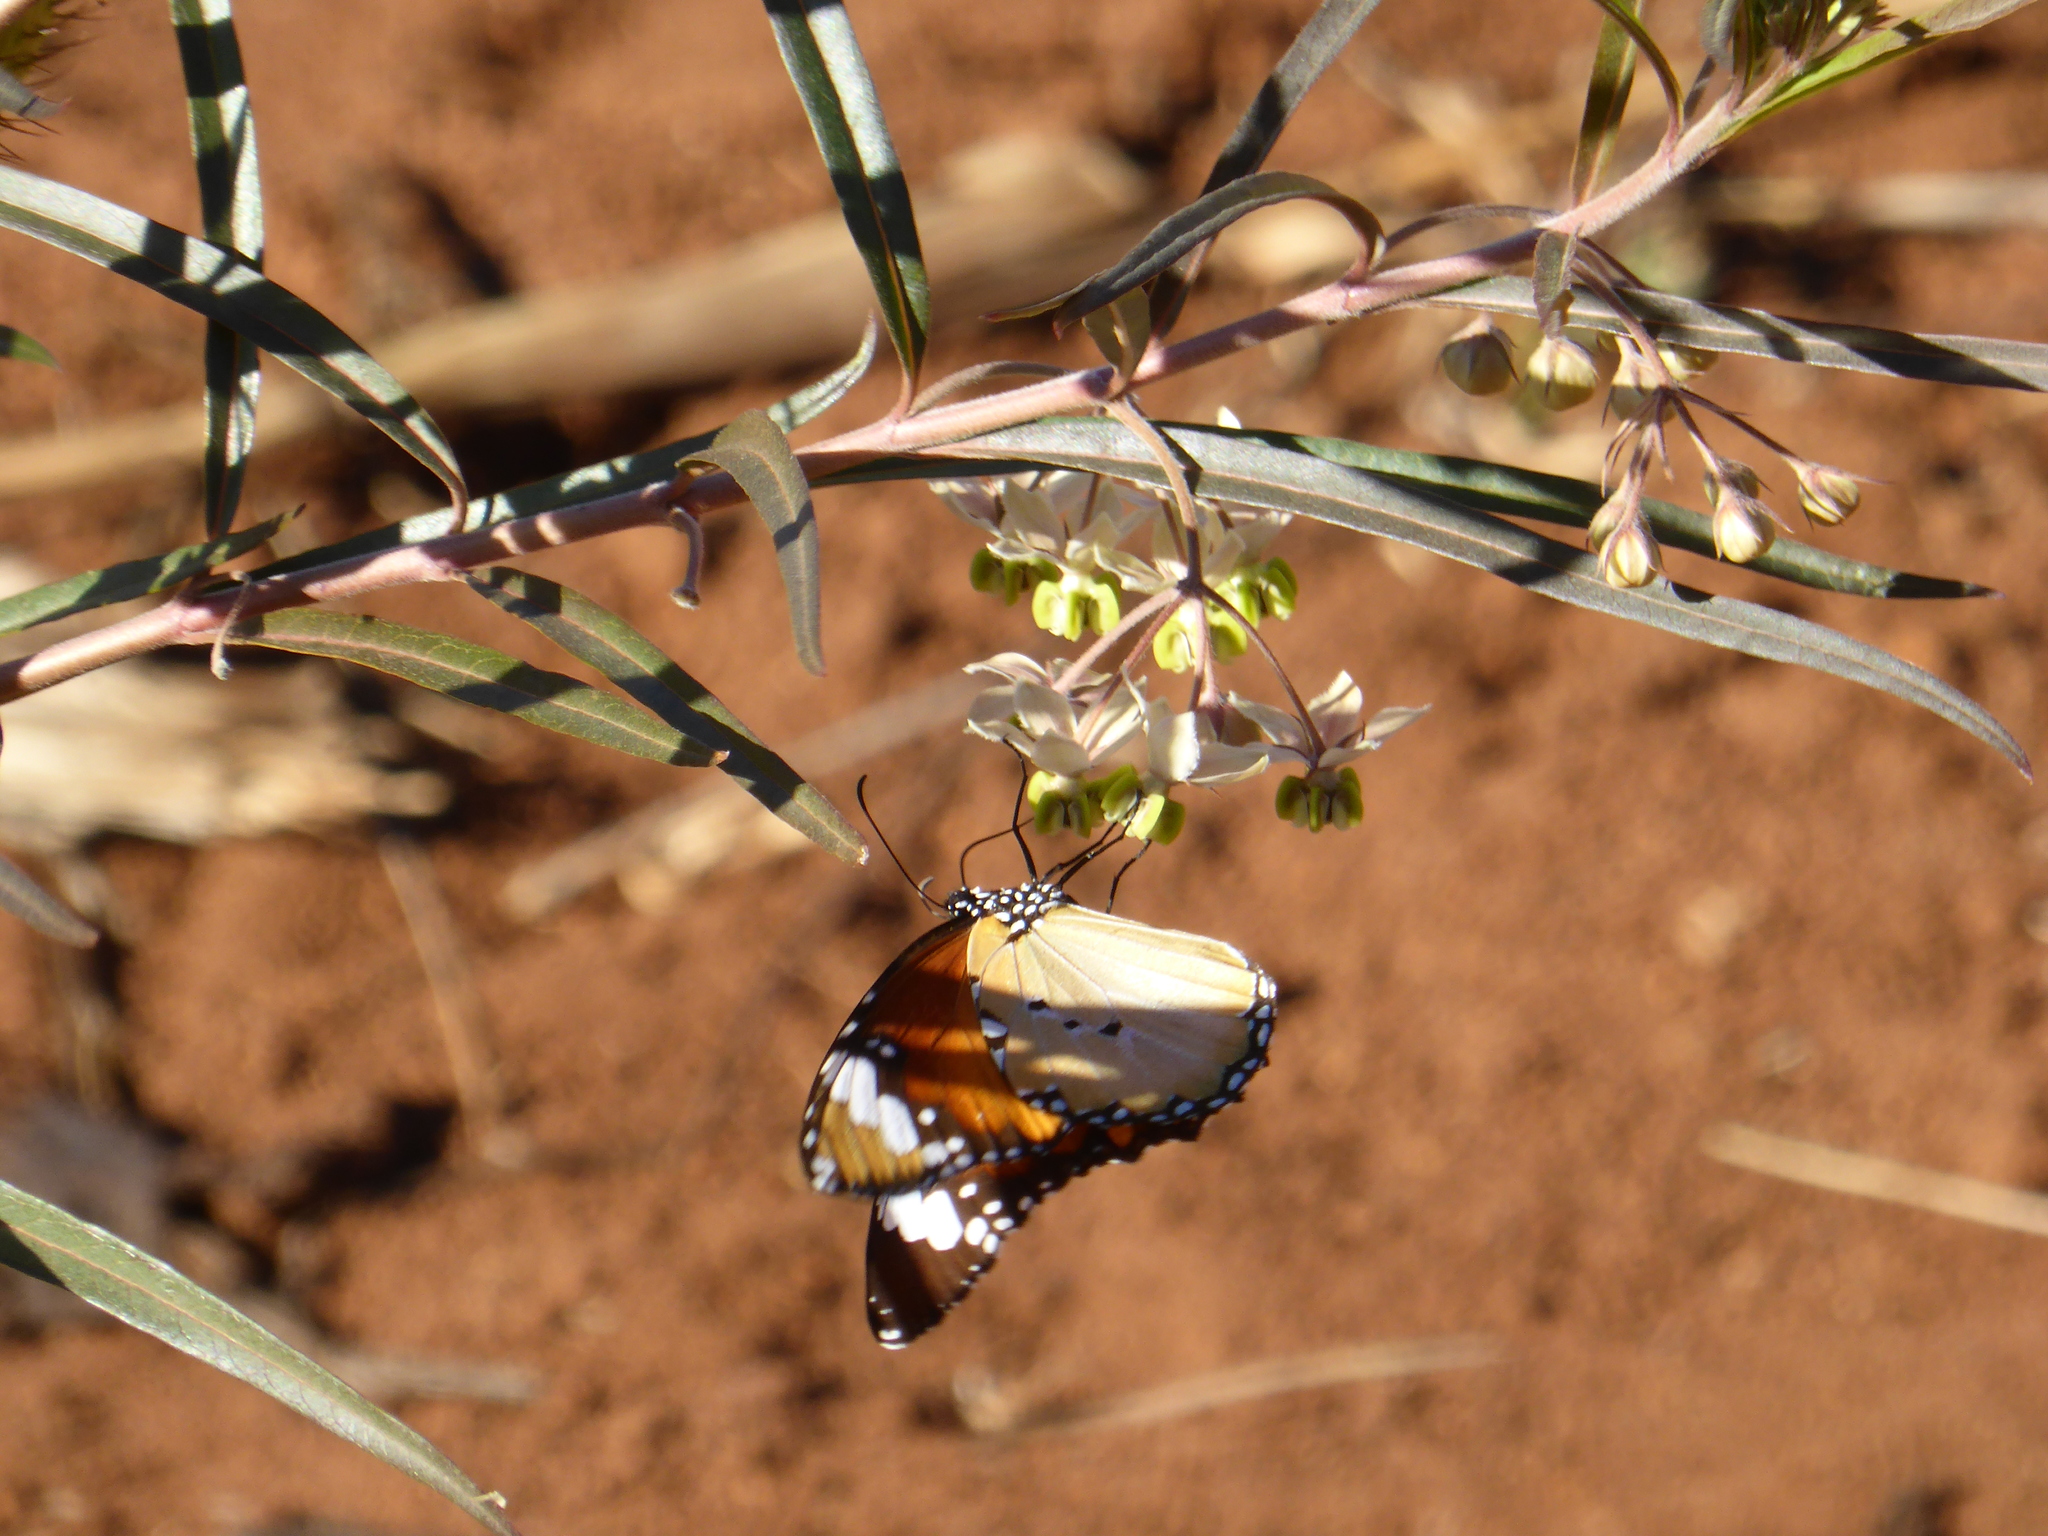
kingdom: Animalia
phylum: Arthropoda
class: Insecta
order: Lepidoptera
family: Nymphalidae
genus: Danaus
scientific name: Danaus chrysippus
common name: Plain tiger
